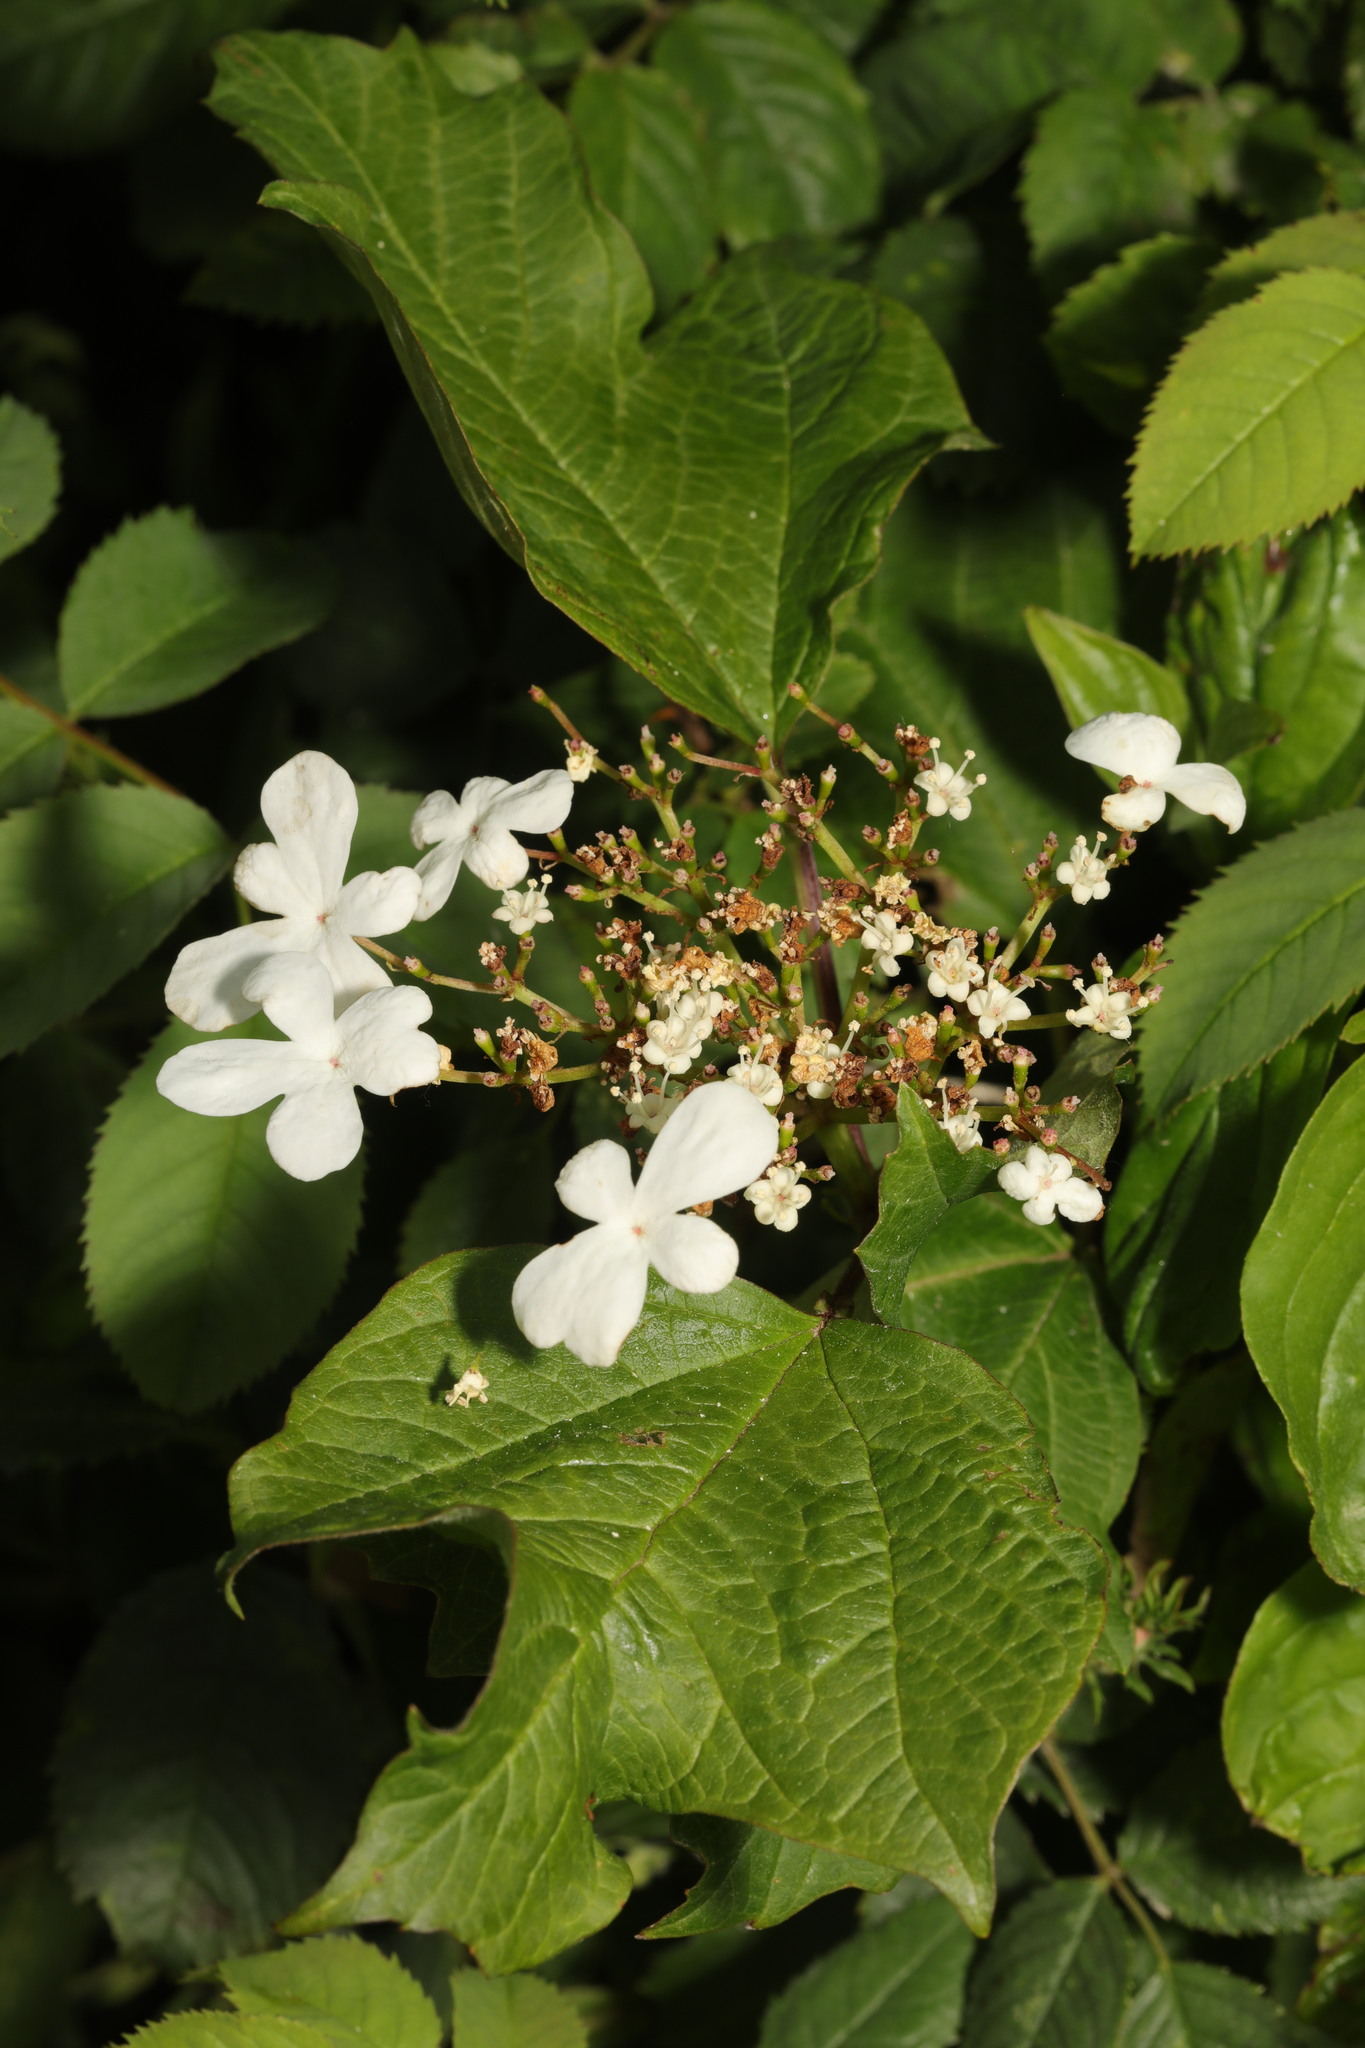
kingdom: Plantae
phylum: Tracheophyta
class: Magnoliopsida
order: Dipsacales
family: Viburnaceae
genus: Viburnum
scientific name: Viburnum opulus
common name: Guelder-rose
